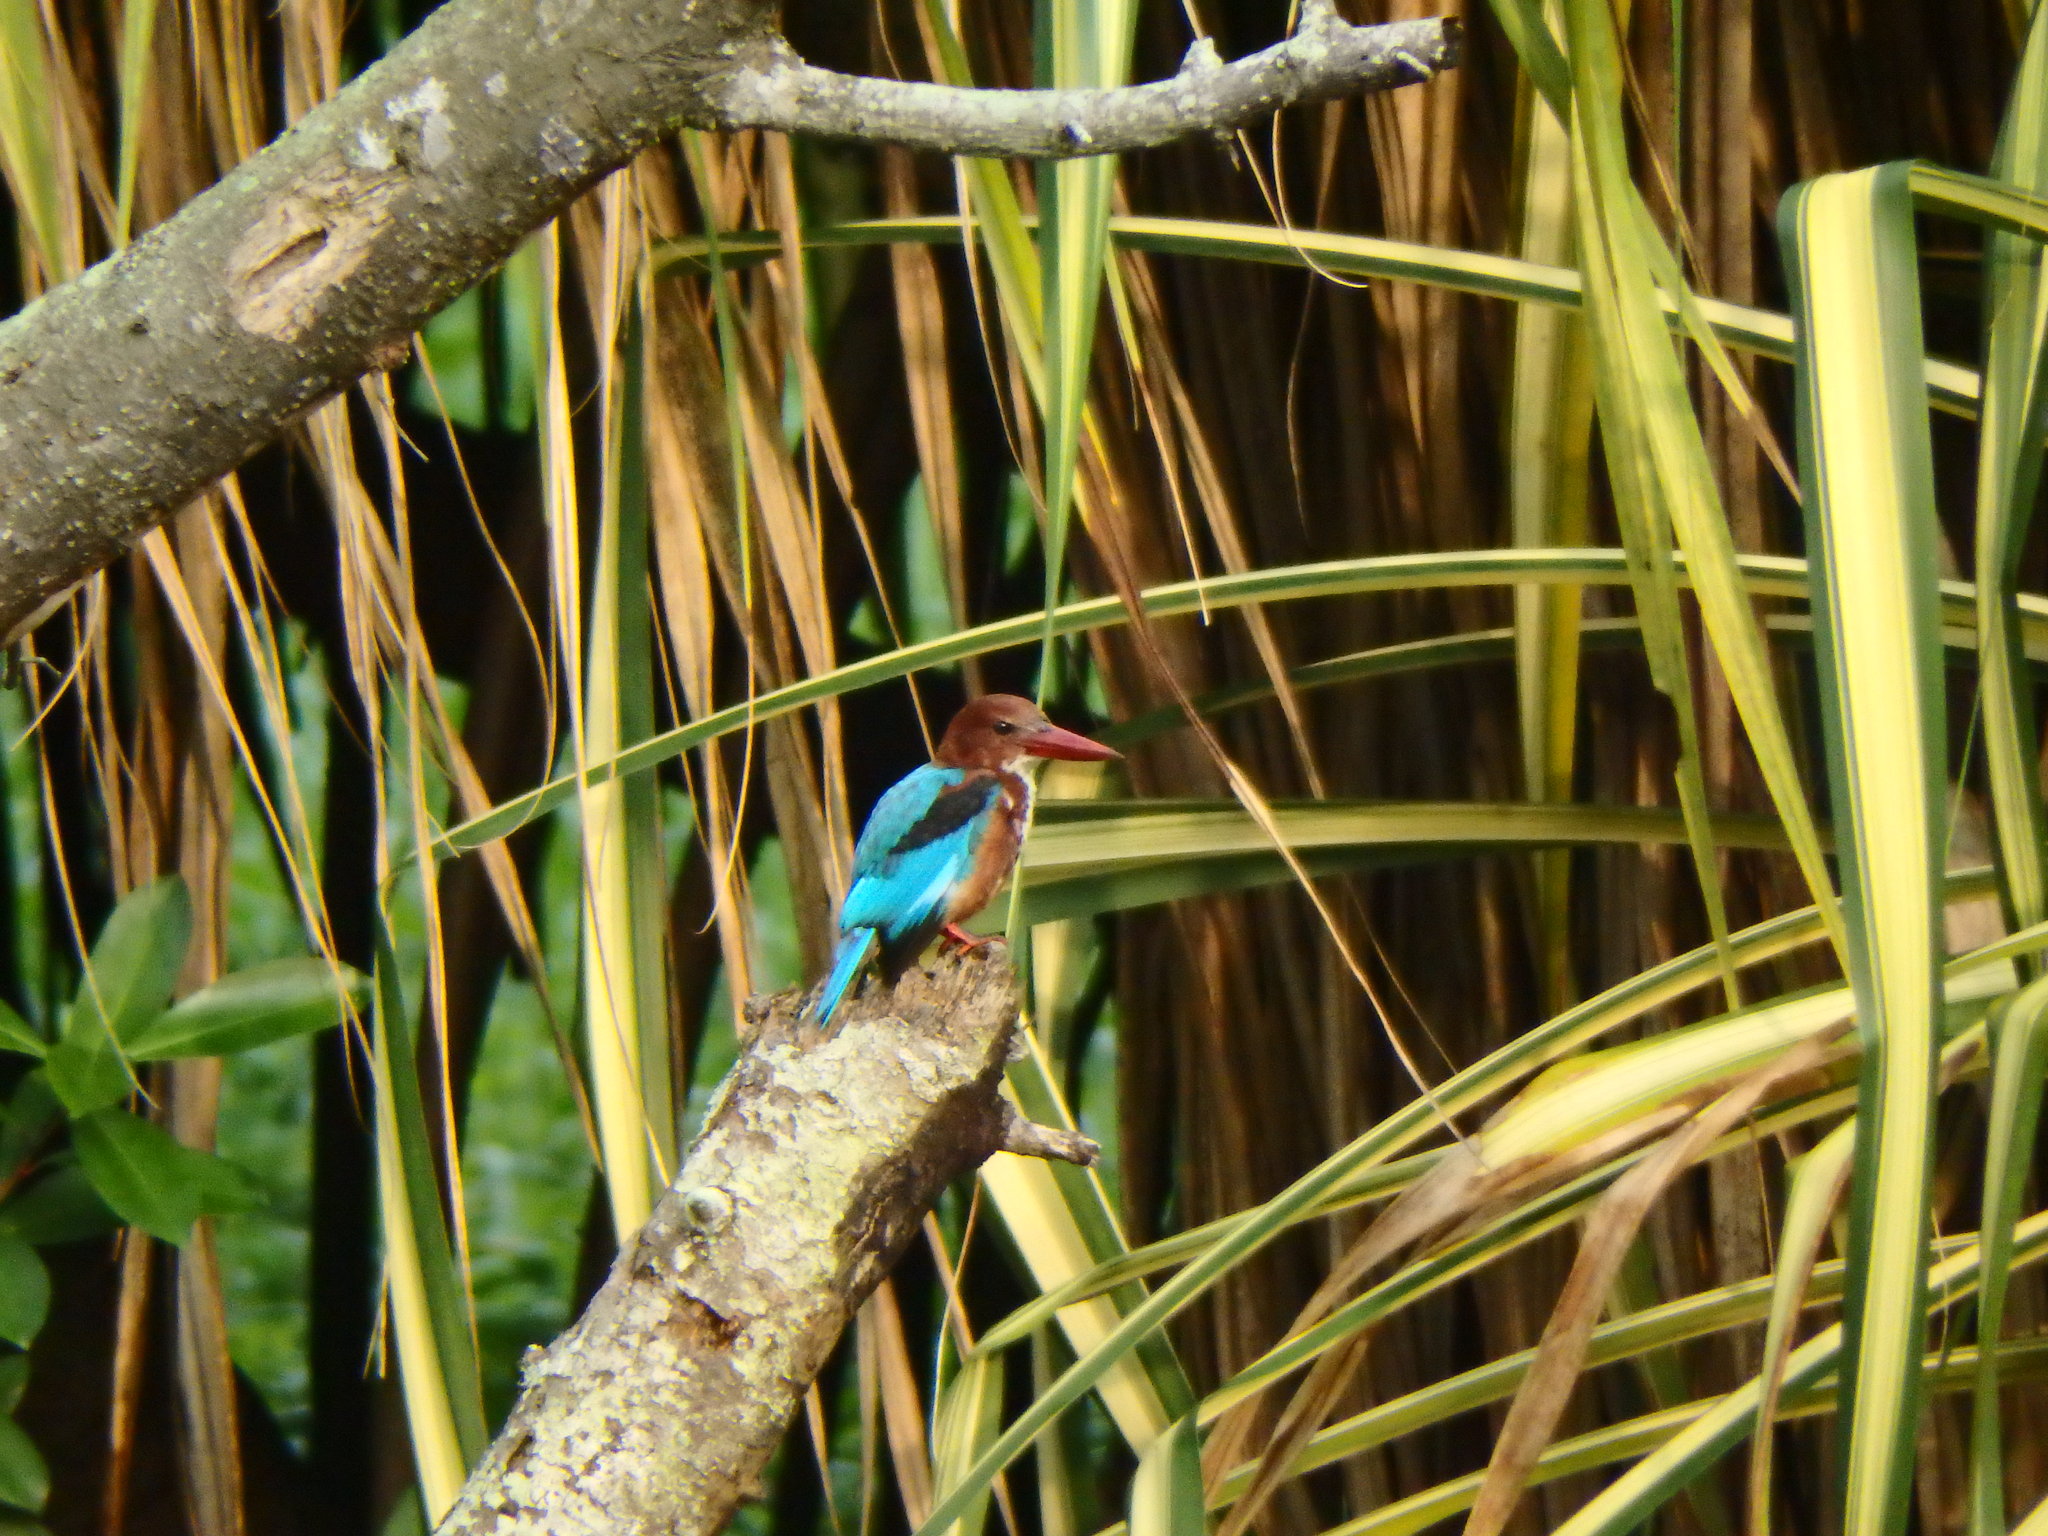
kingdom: Animalia
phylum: Chordata
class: Aves
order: Coraciiformes
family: Alcedinidae
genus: Halcyon
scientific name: Halcyon smyrnensis
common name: White-throated kingfisher
